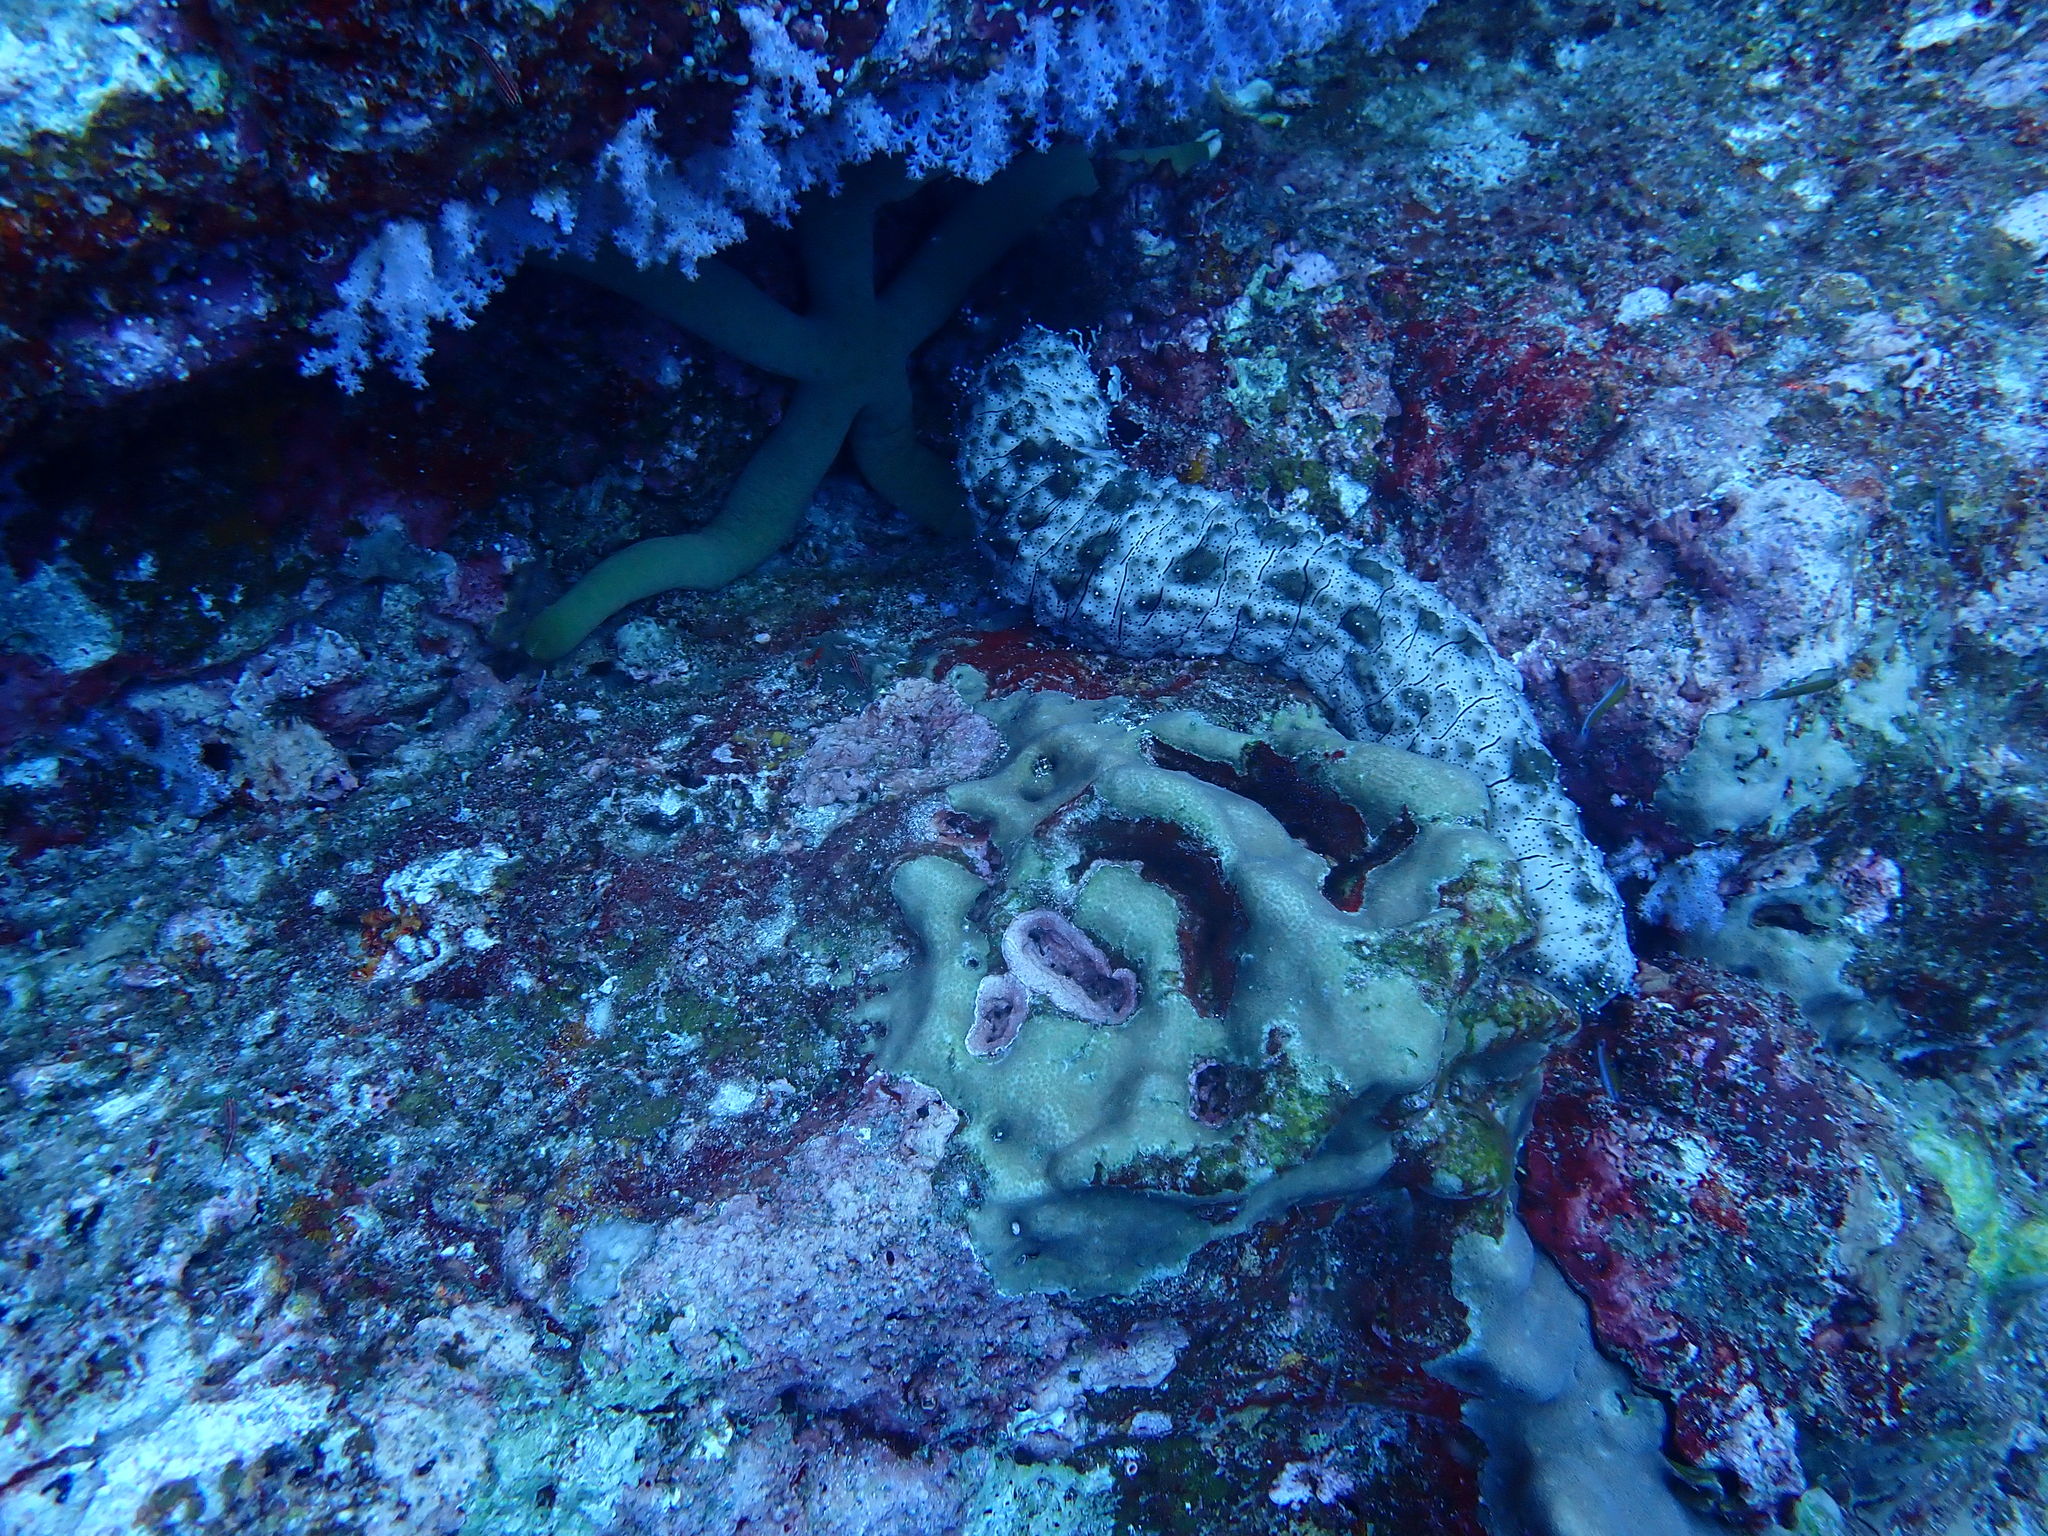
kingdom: Animalia
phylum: Echinodermata
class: Holothuroidea
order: Holothuriida
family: Holothuriidae
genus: Pearsonothuria
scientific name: Pearsonothuria graeffei
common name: Blackspotted sea cucumber
